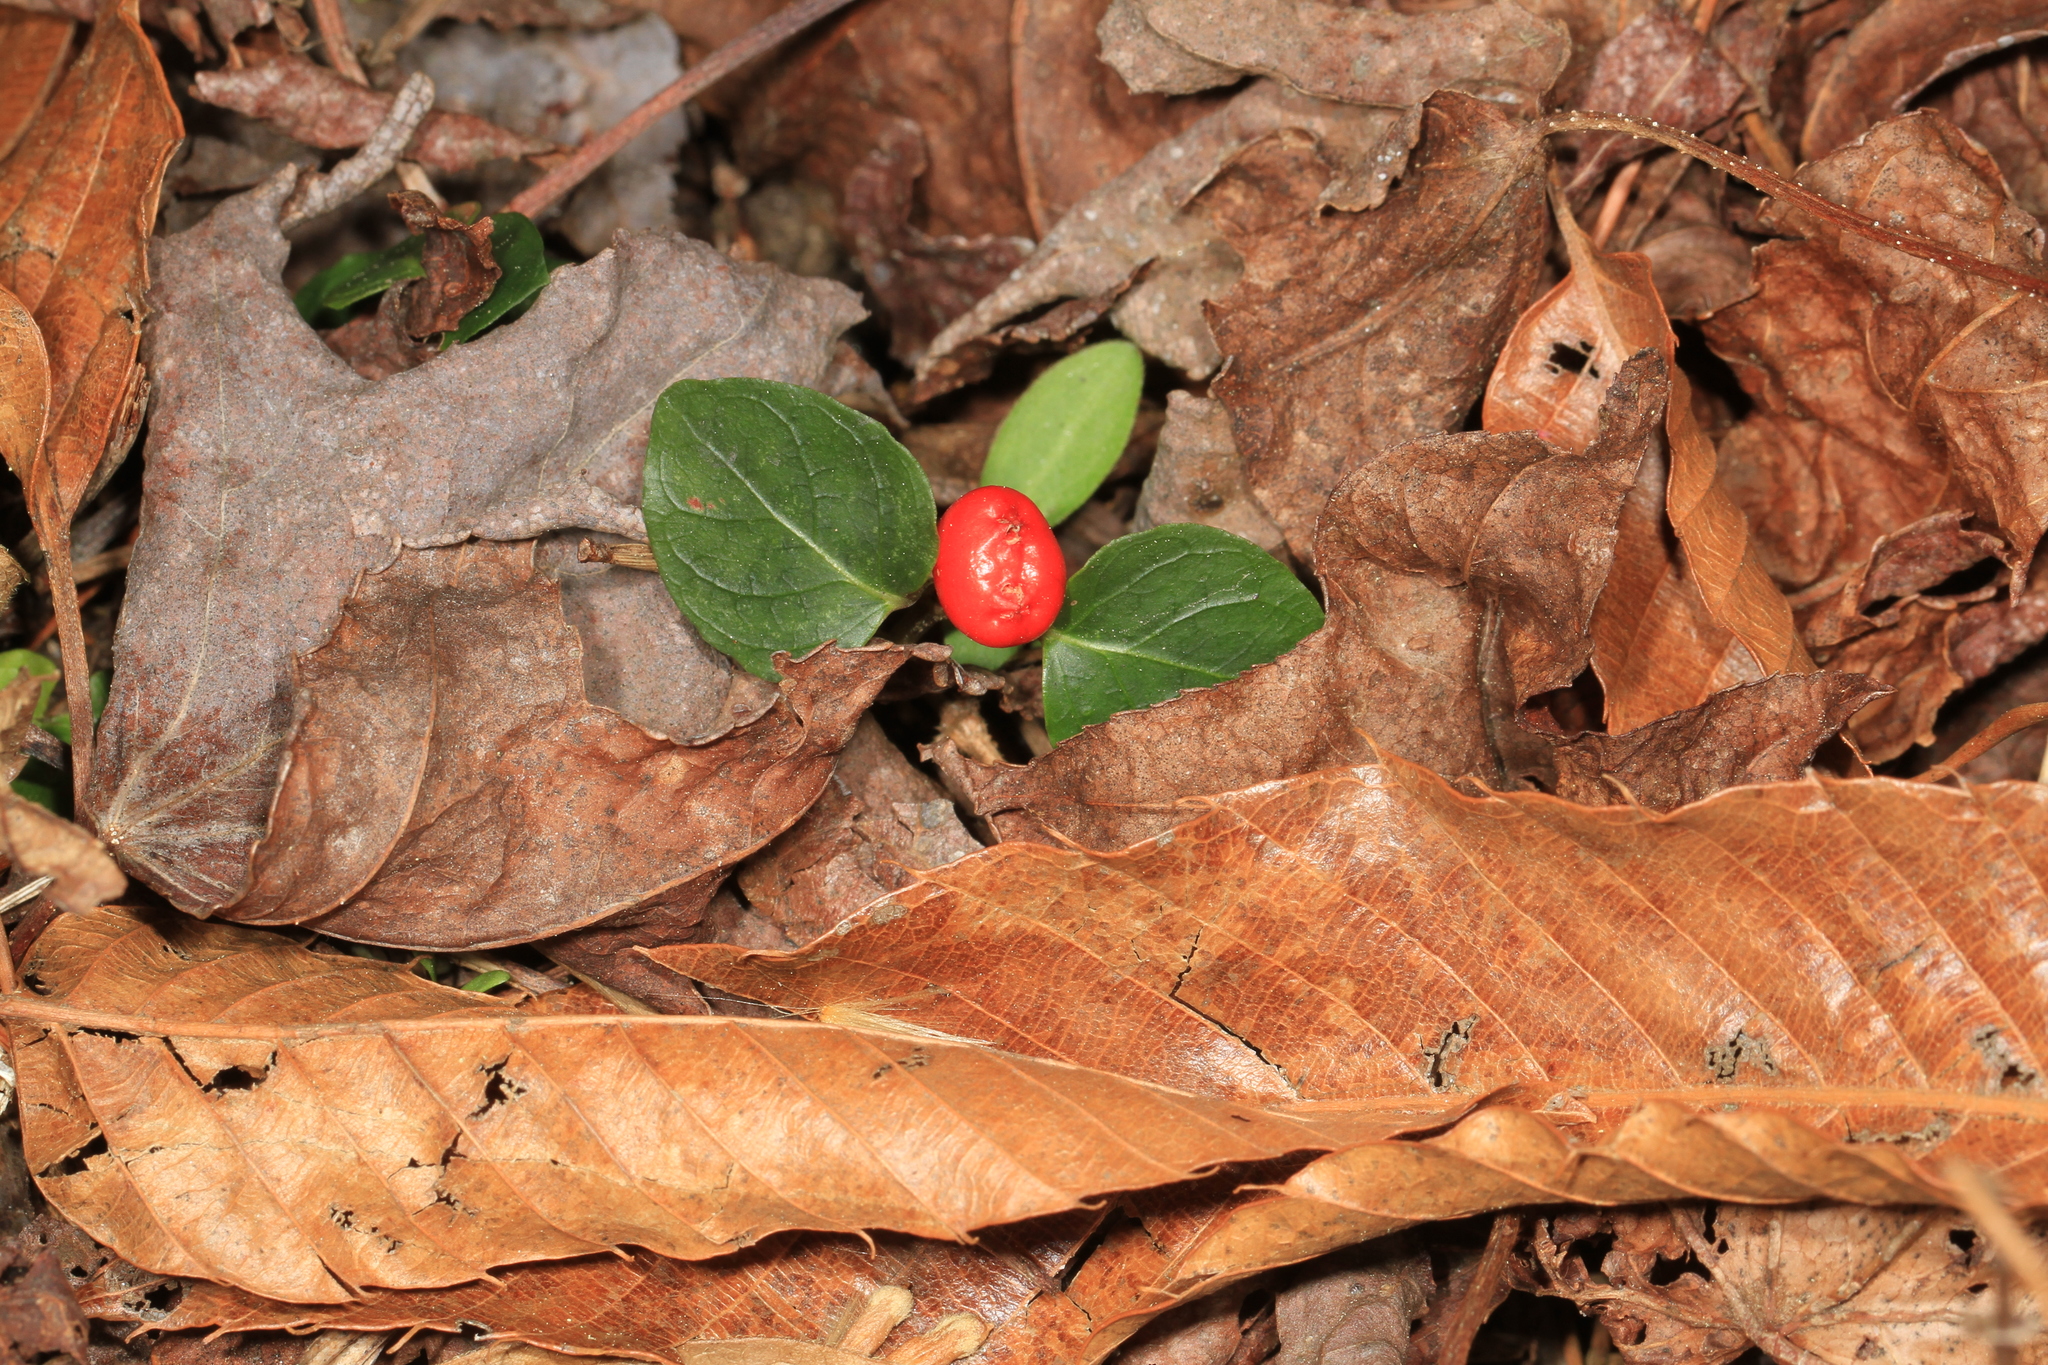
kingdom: Plantae
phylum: Tracheophyta
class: Magnoliopsida
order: Gentianales
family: Rubiaceae
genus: Mitchella
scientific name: Mitchella repens
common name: Partridge-berry
